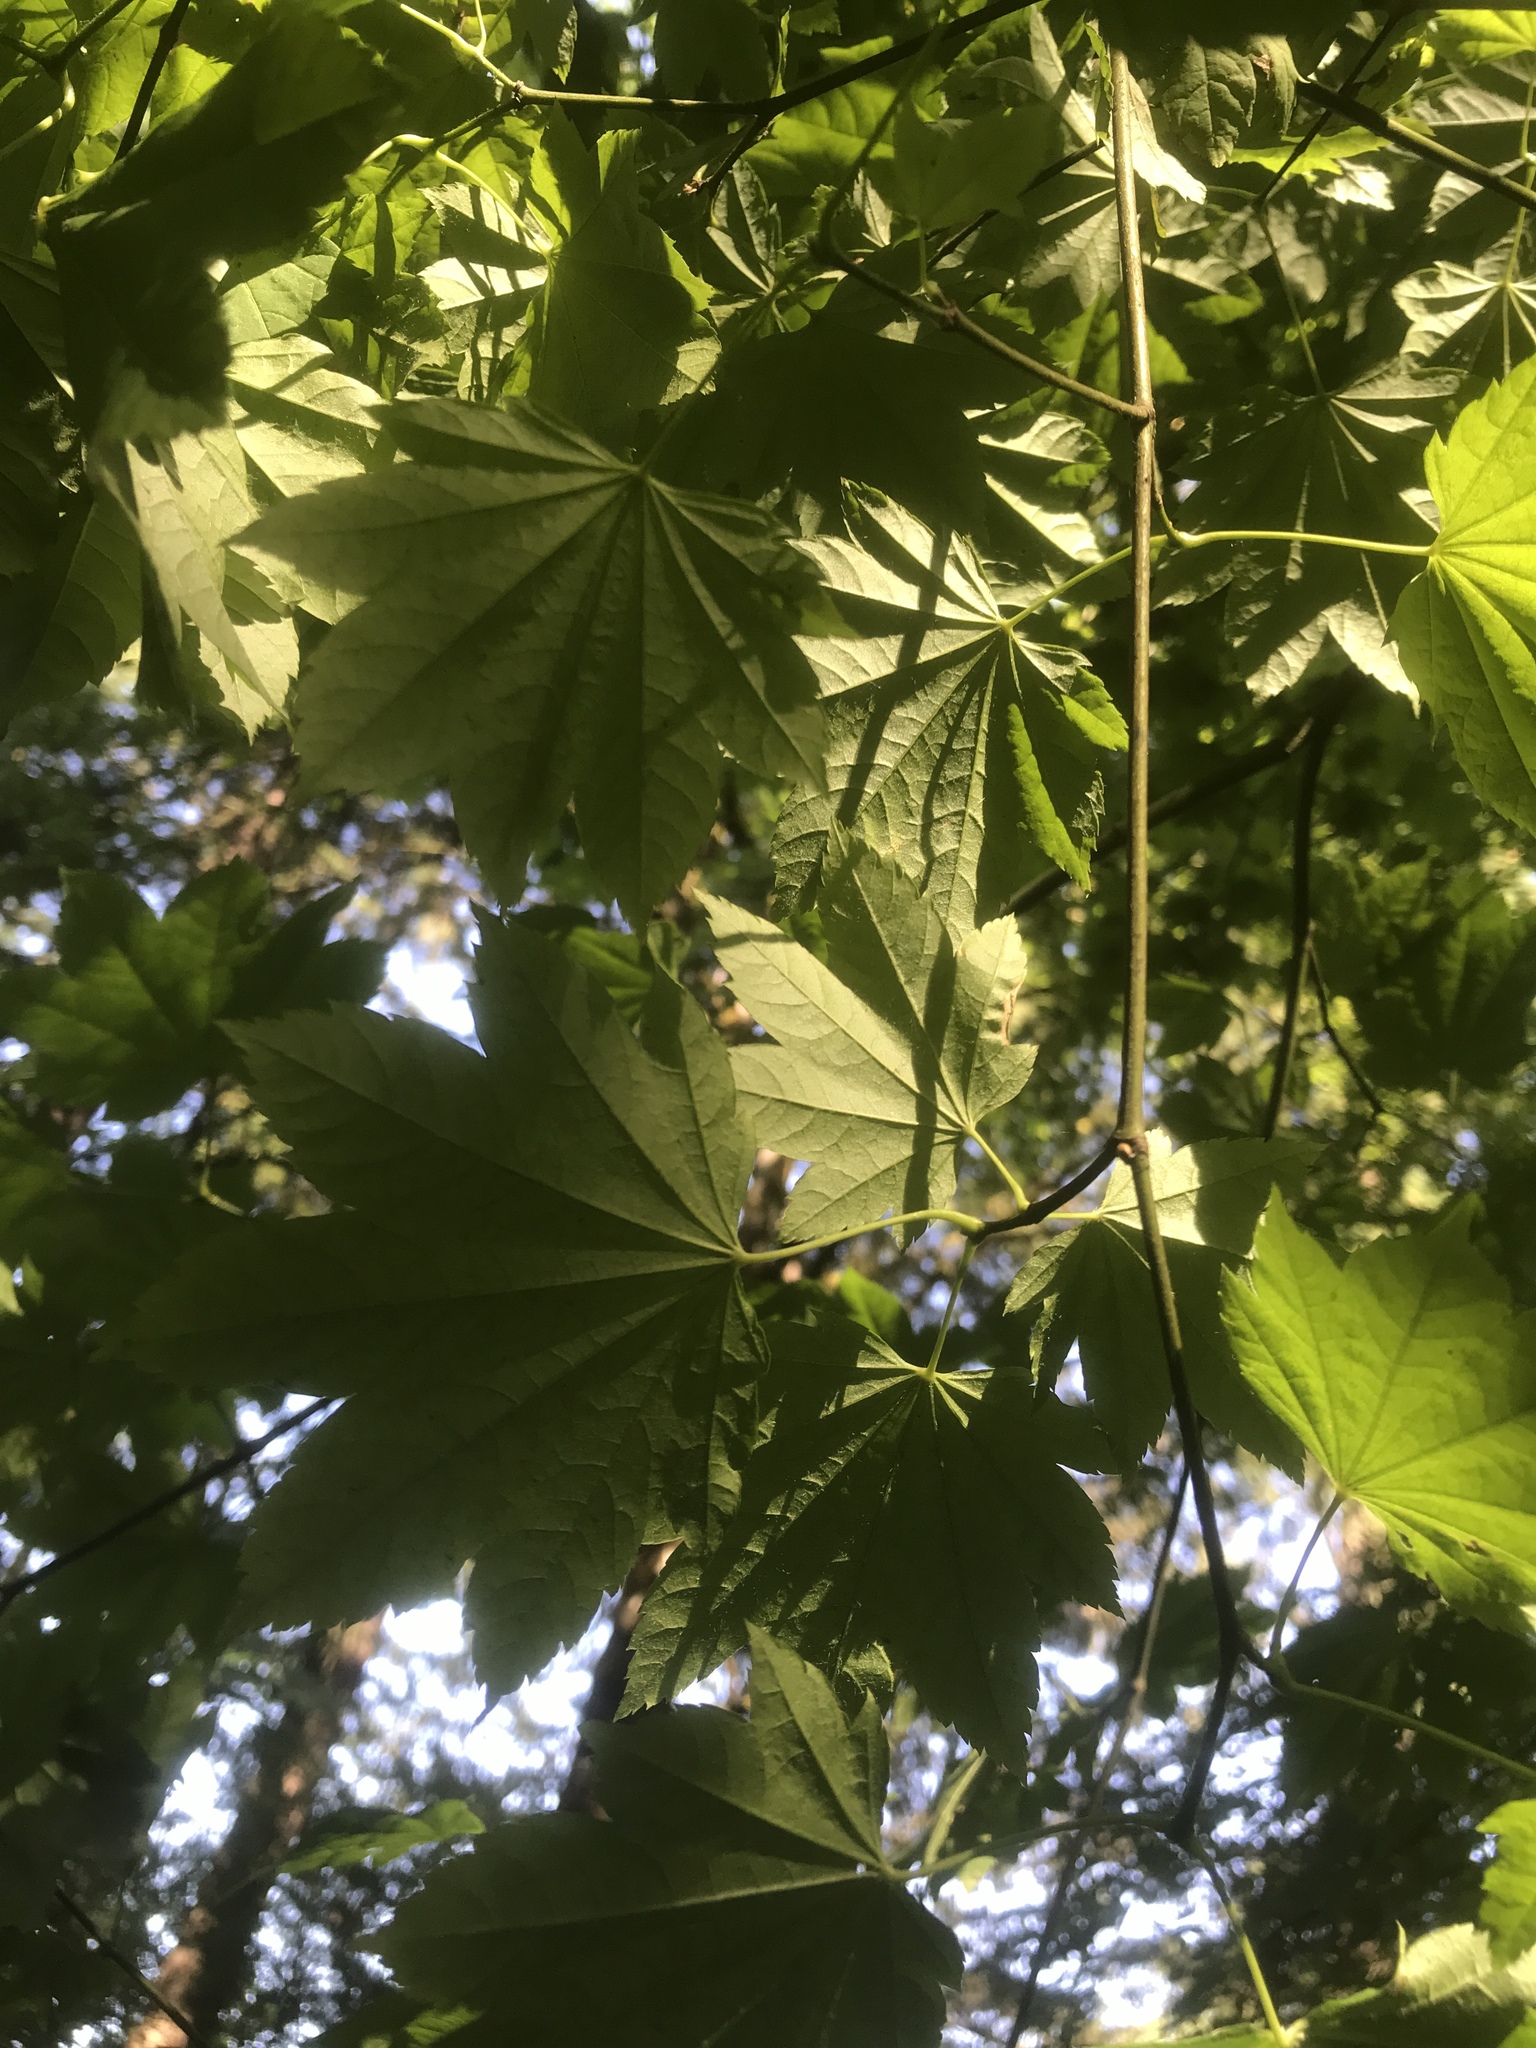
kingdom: Plantae
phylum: Tracheophyta
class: Magnoliopsida
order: Sapindales
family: Sapindaceae
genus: Acer
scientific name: Acer circinatum
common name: Vine maple
